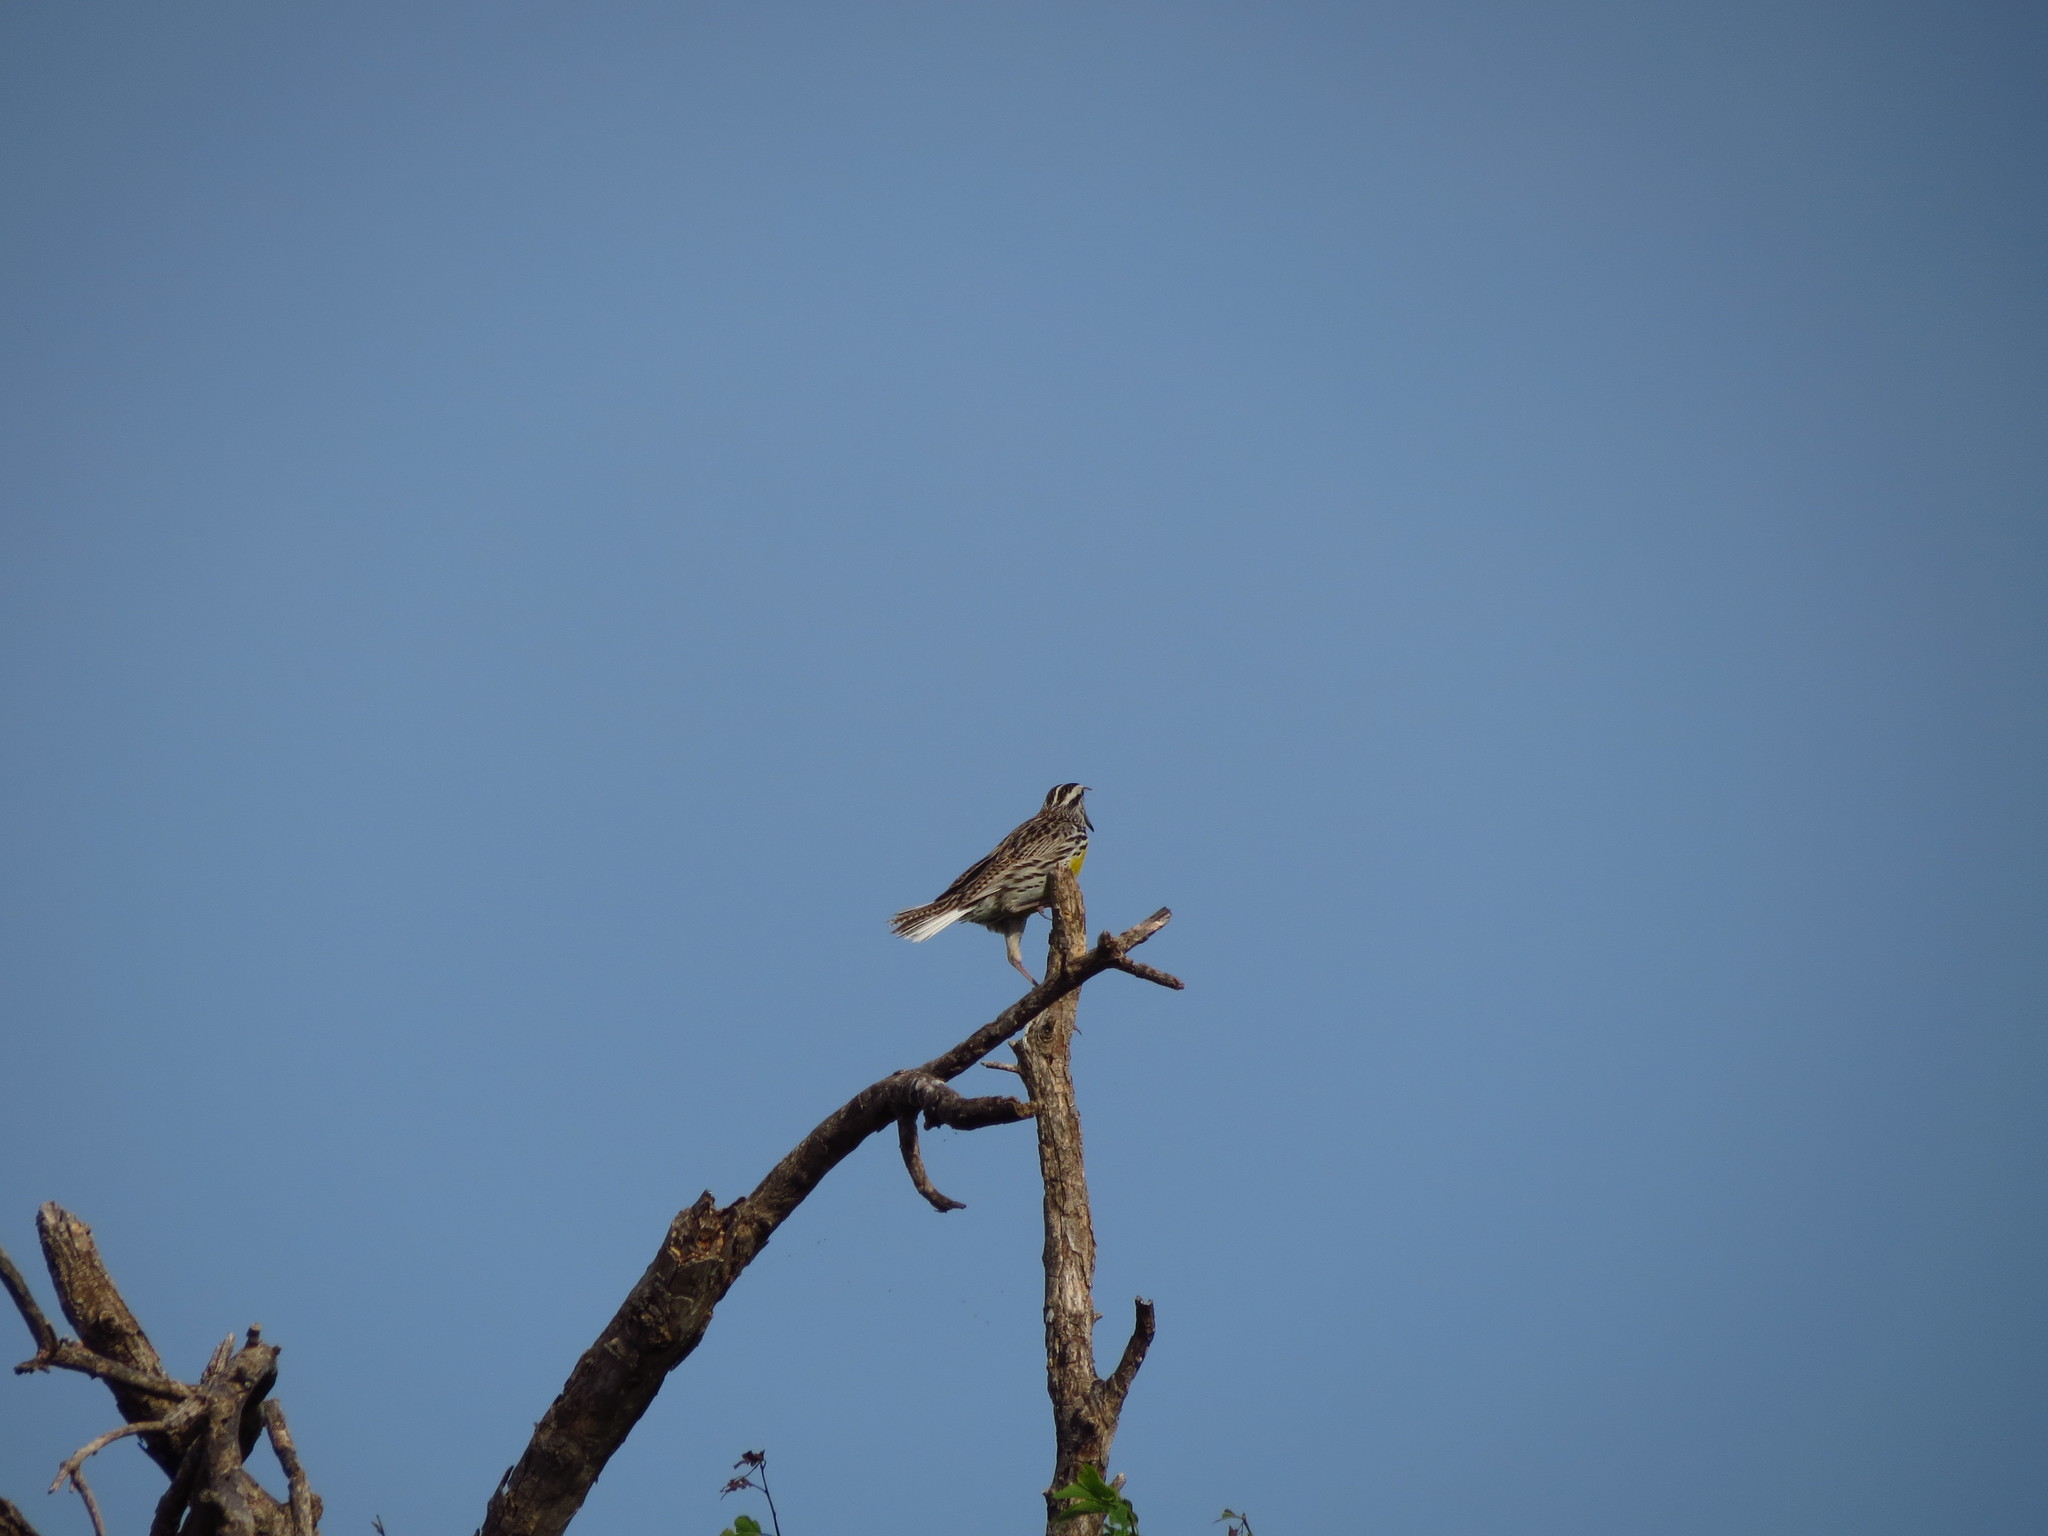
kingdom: Animalia
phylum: Chordata
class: Aves
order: Passeriformes
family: Icteridae
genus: Sturnella
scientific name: Sturnella magna
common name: Eastern meadowlark
